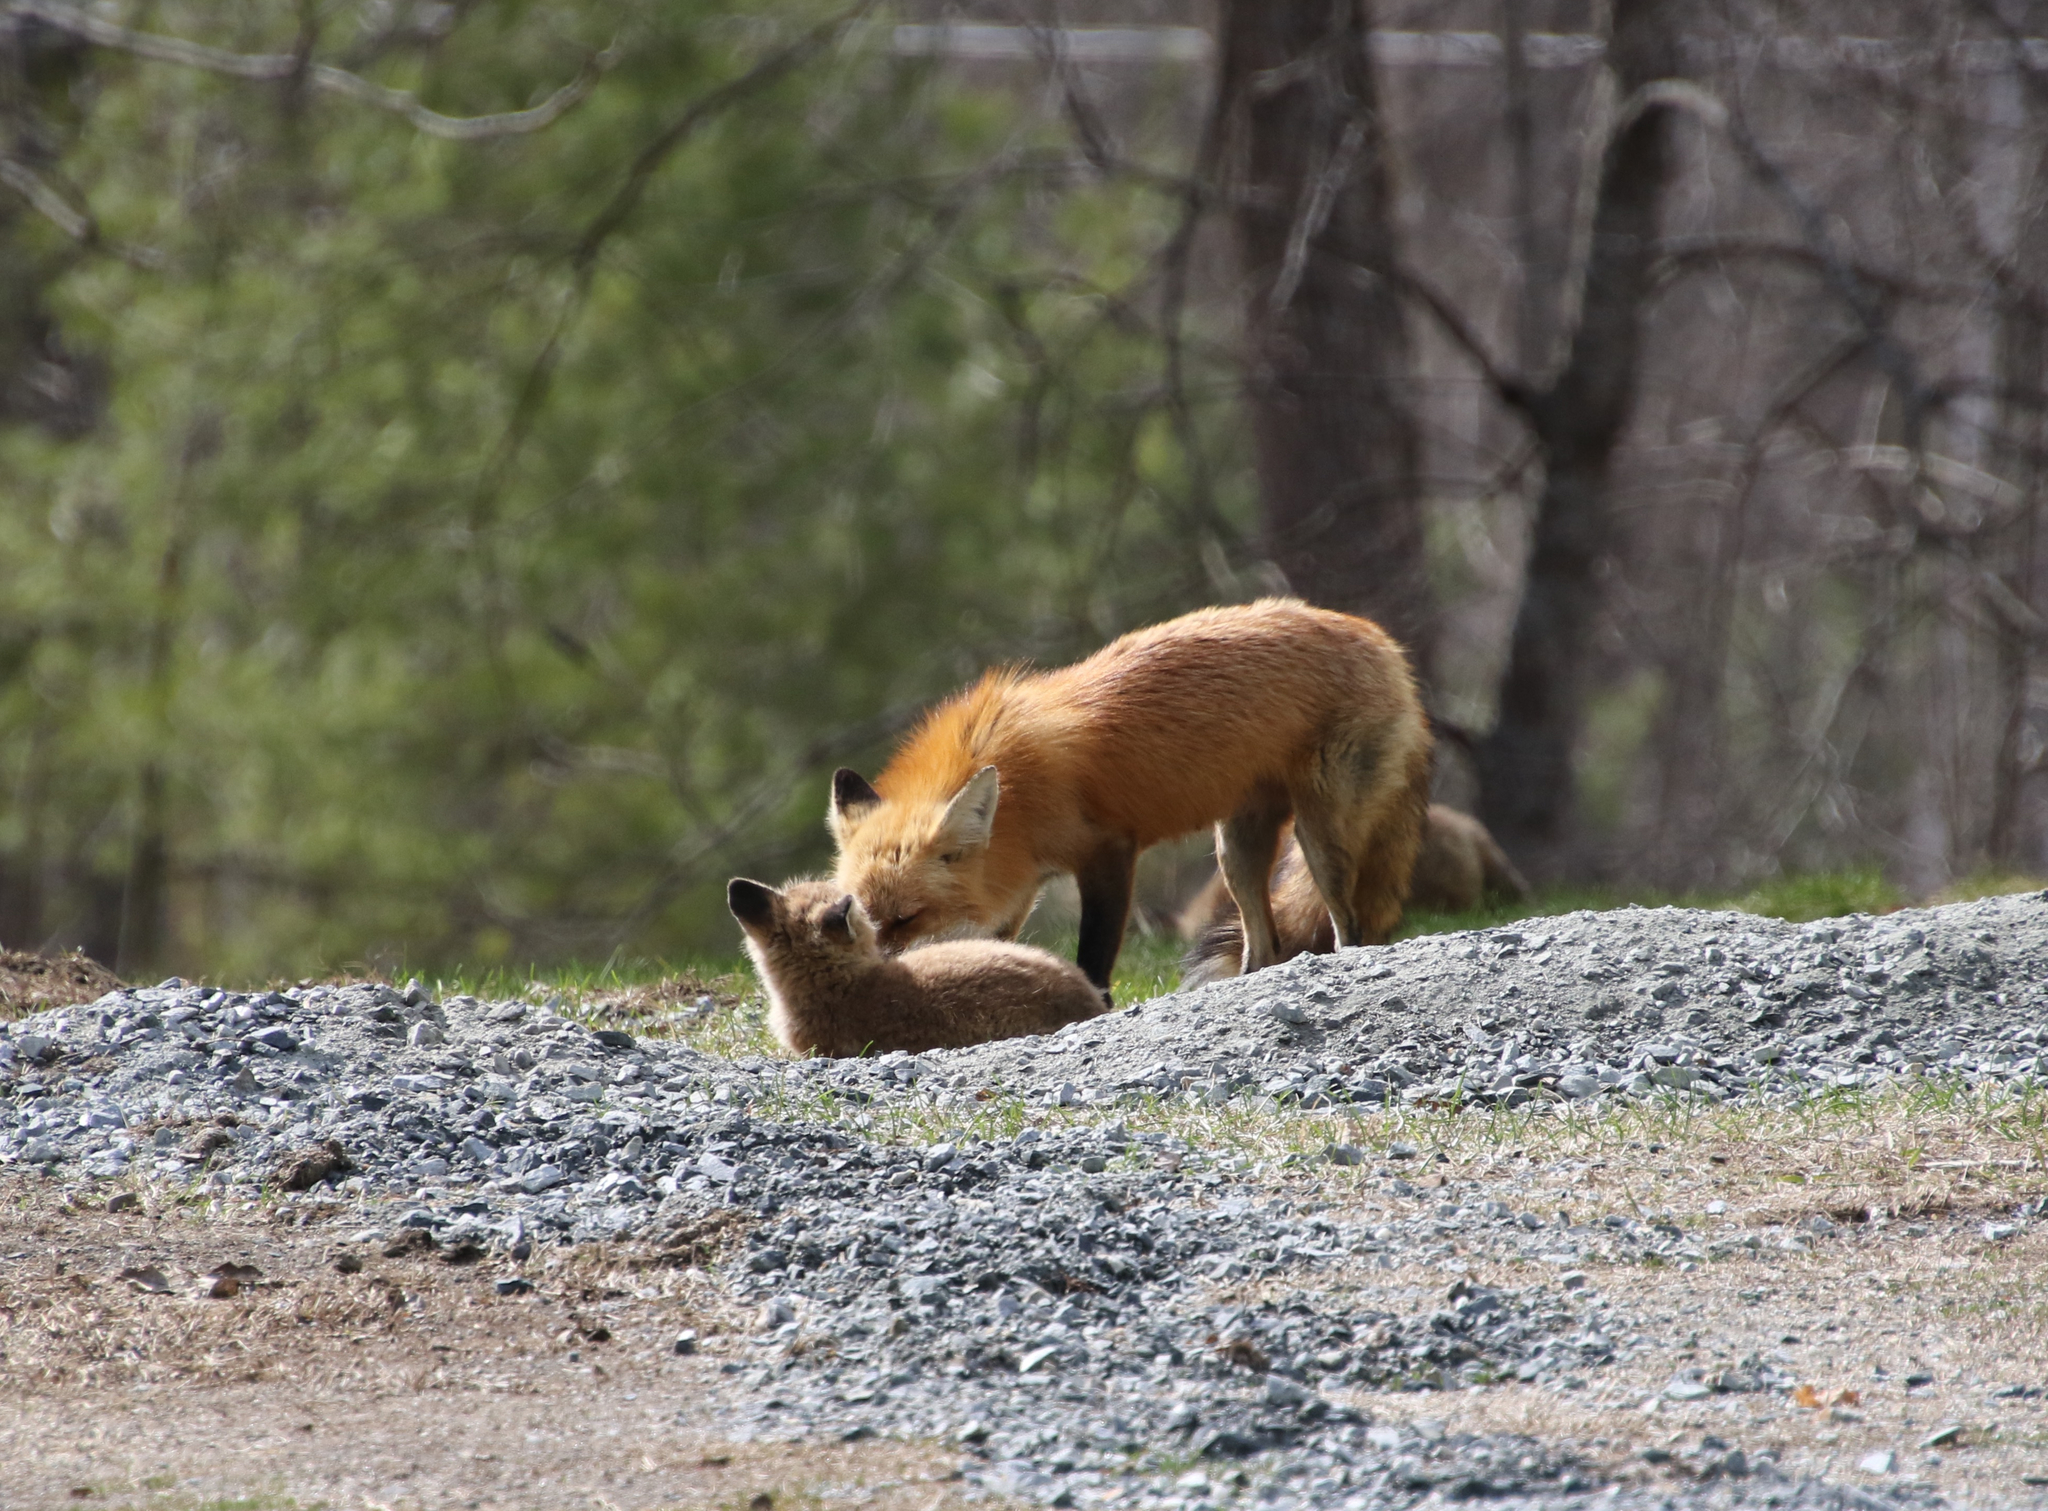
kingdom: Animalia
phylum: Chordata
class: Mammalia
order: Carnivora
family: Canidae
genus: Vulpes
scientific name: Vulpes vulpes
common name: Red fox
